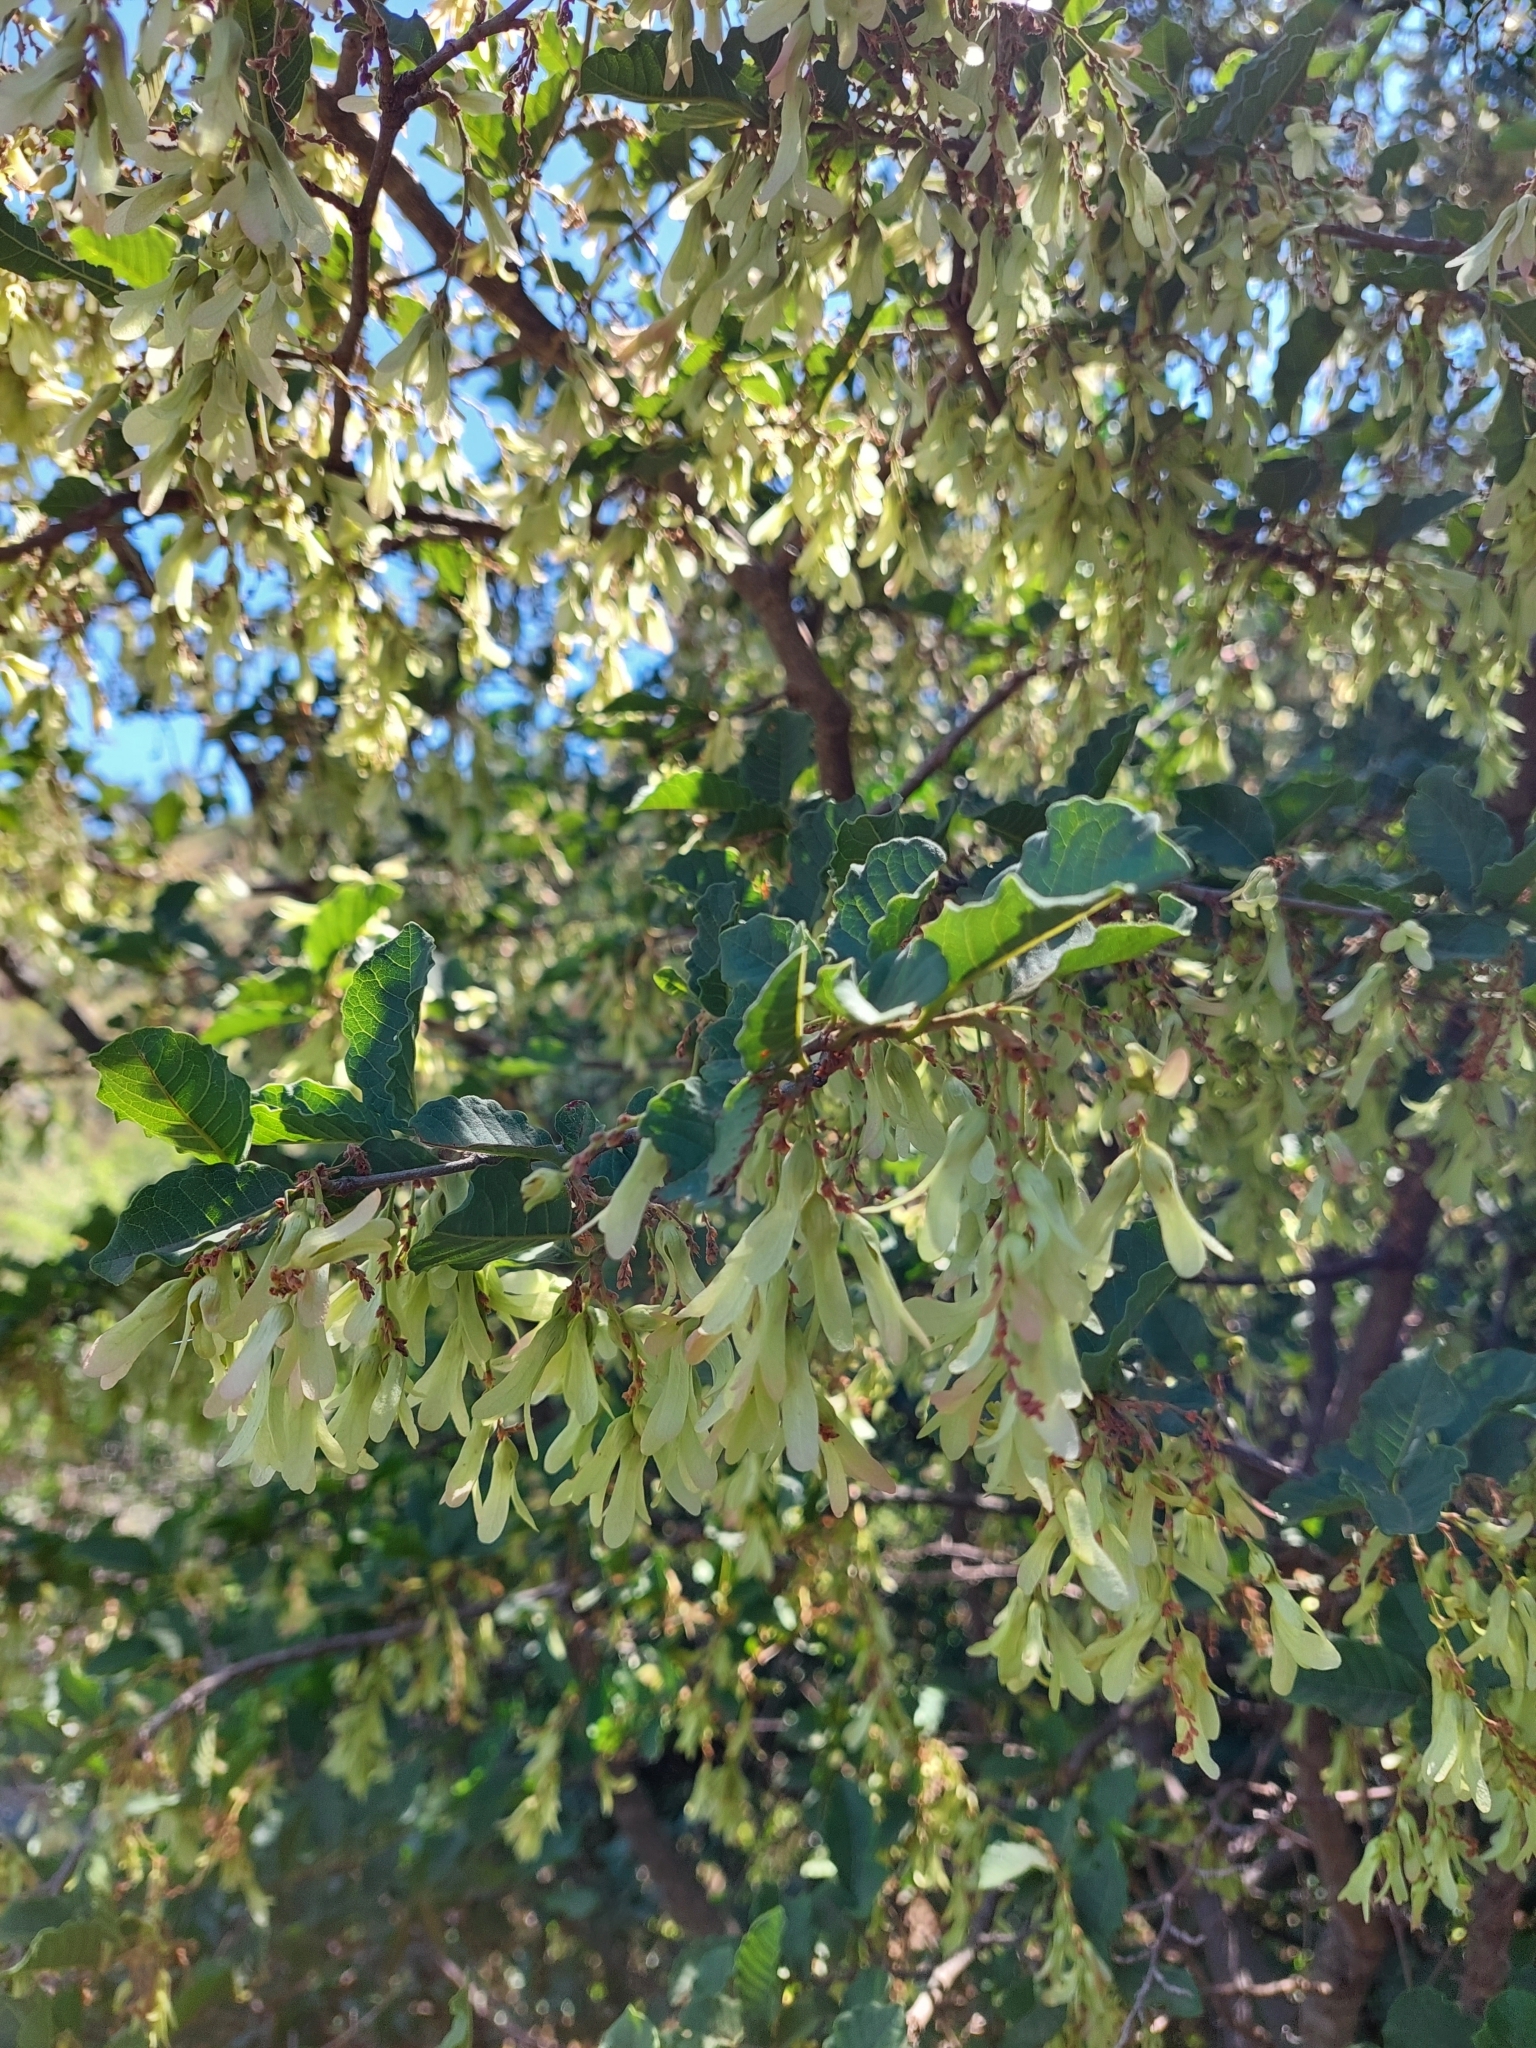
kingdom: Plantae
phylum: Tracheophyta
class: Magnoliopsida
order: Caryophyllales
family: Polygonaceae
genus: Ruprechtia
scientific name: Ruprechtia apetala
